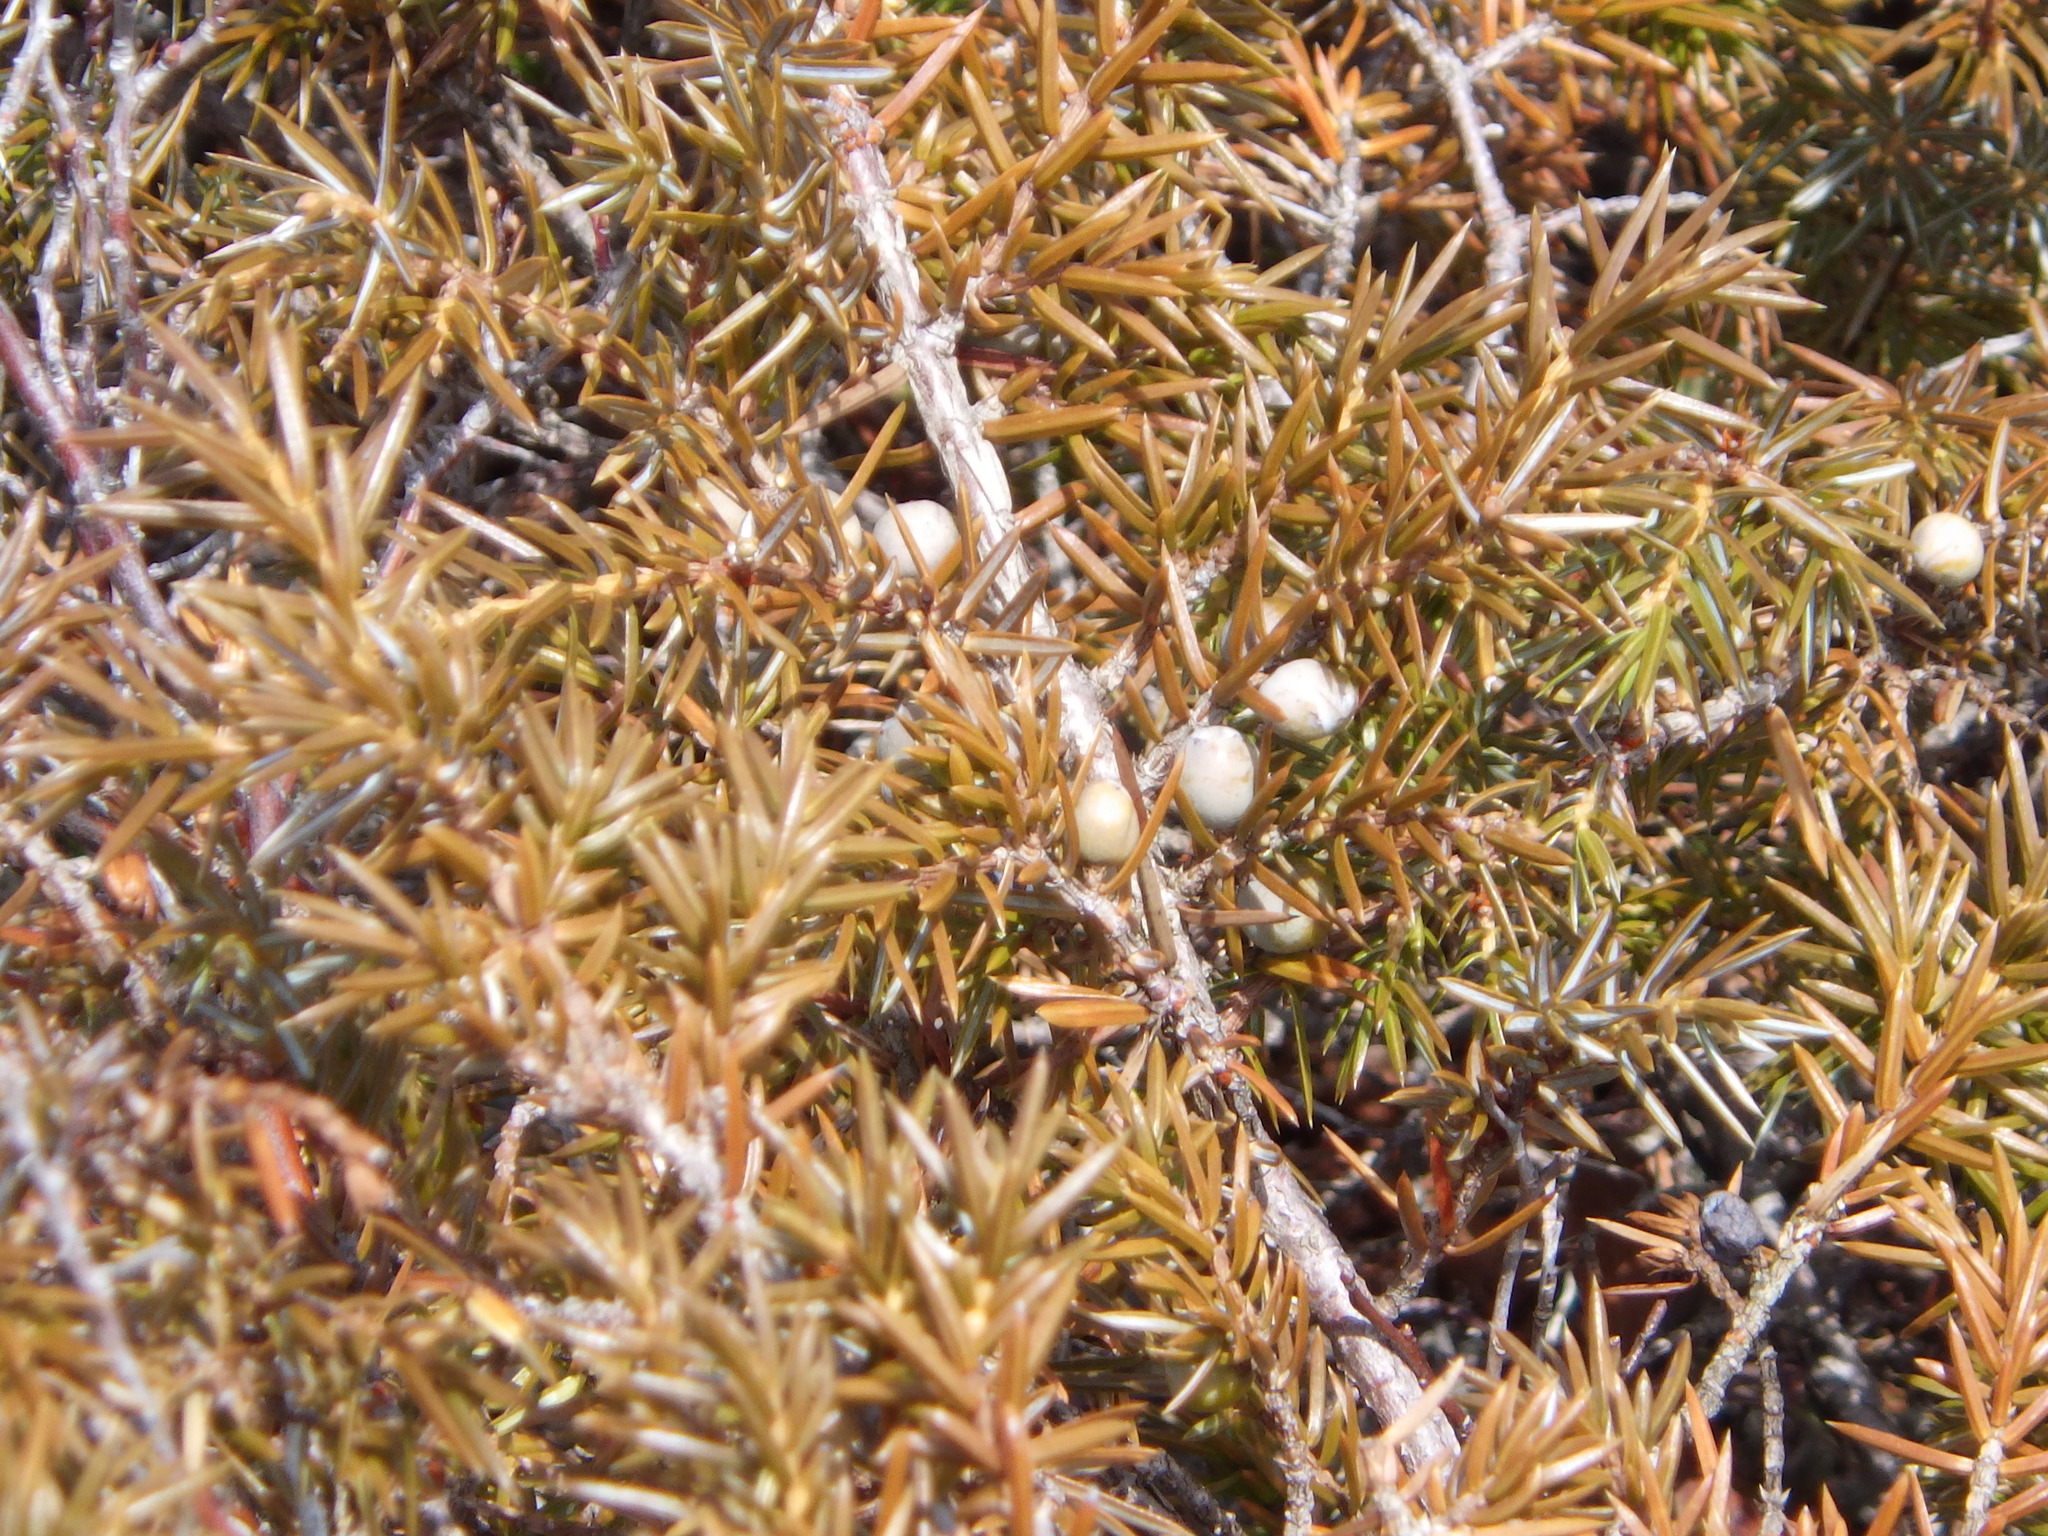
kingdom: Plantae
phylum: Tracheophyta
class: Pinopsida
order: Pinales
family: Cupressaceae
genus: Juniperus
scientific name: Juniperus communis
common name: Common juniper
